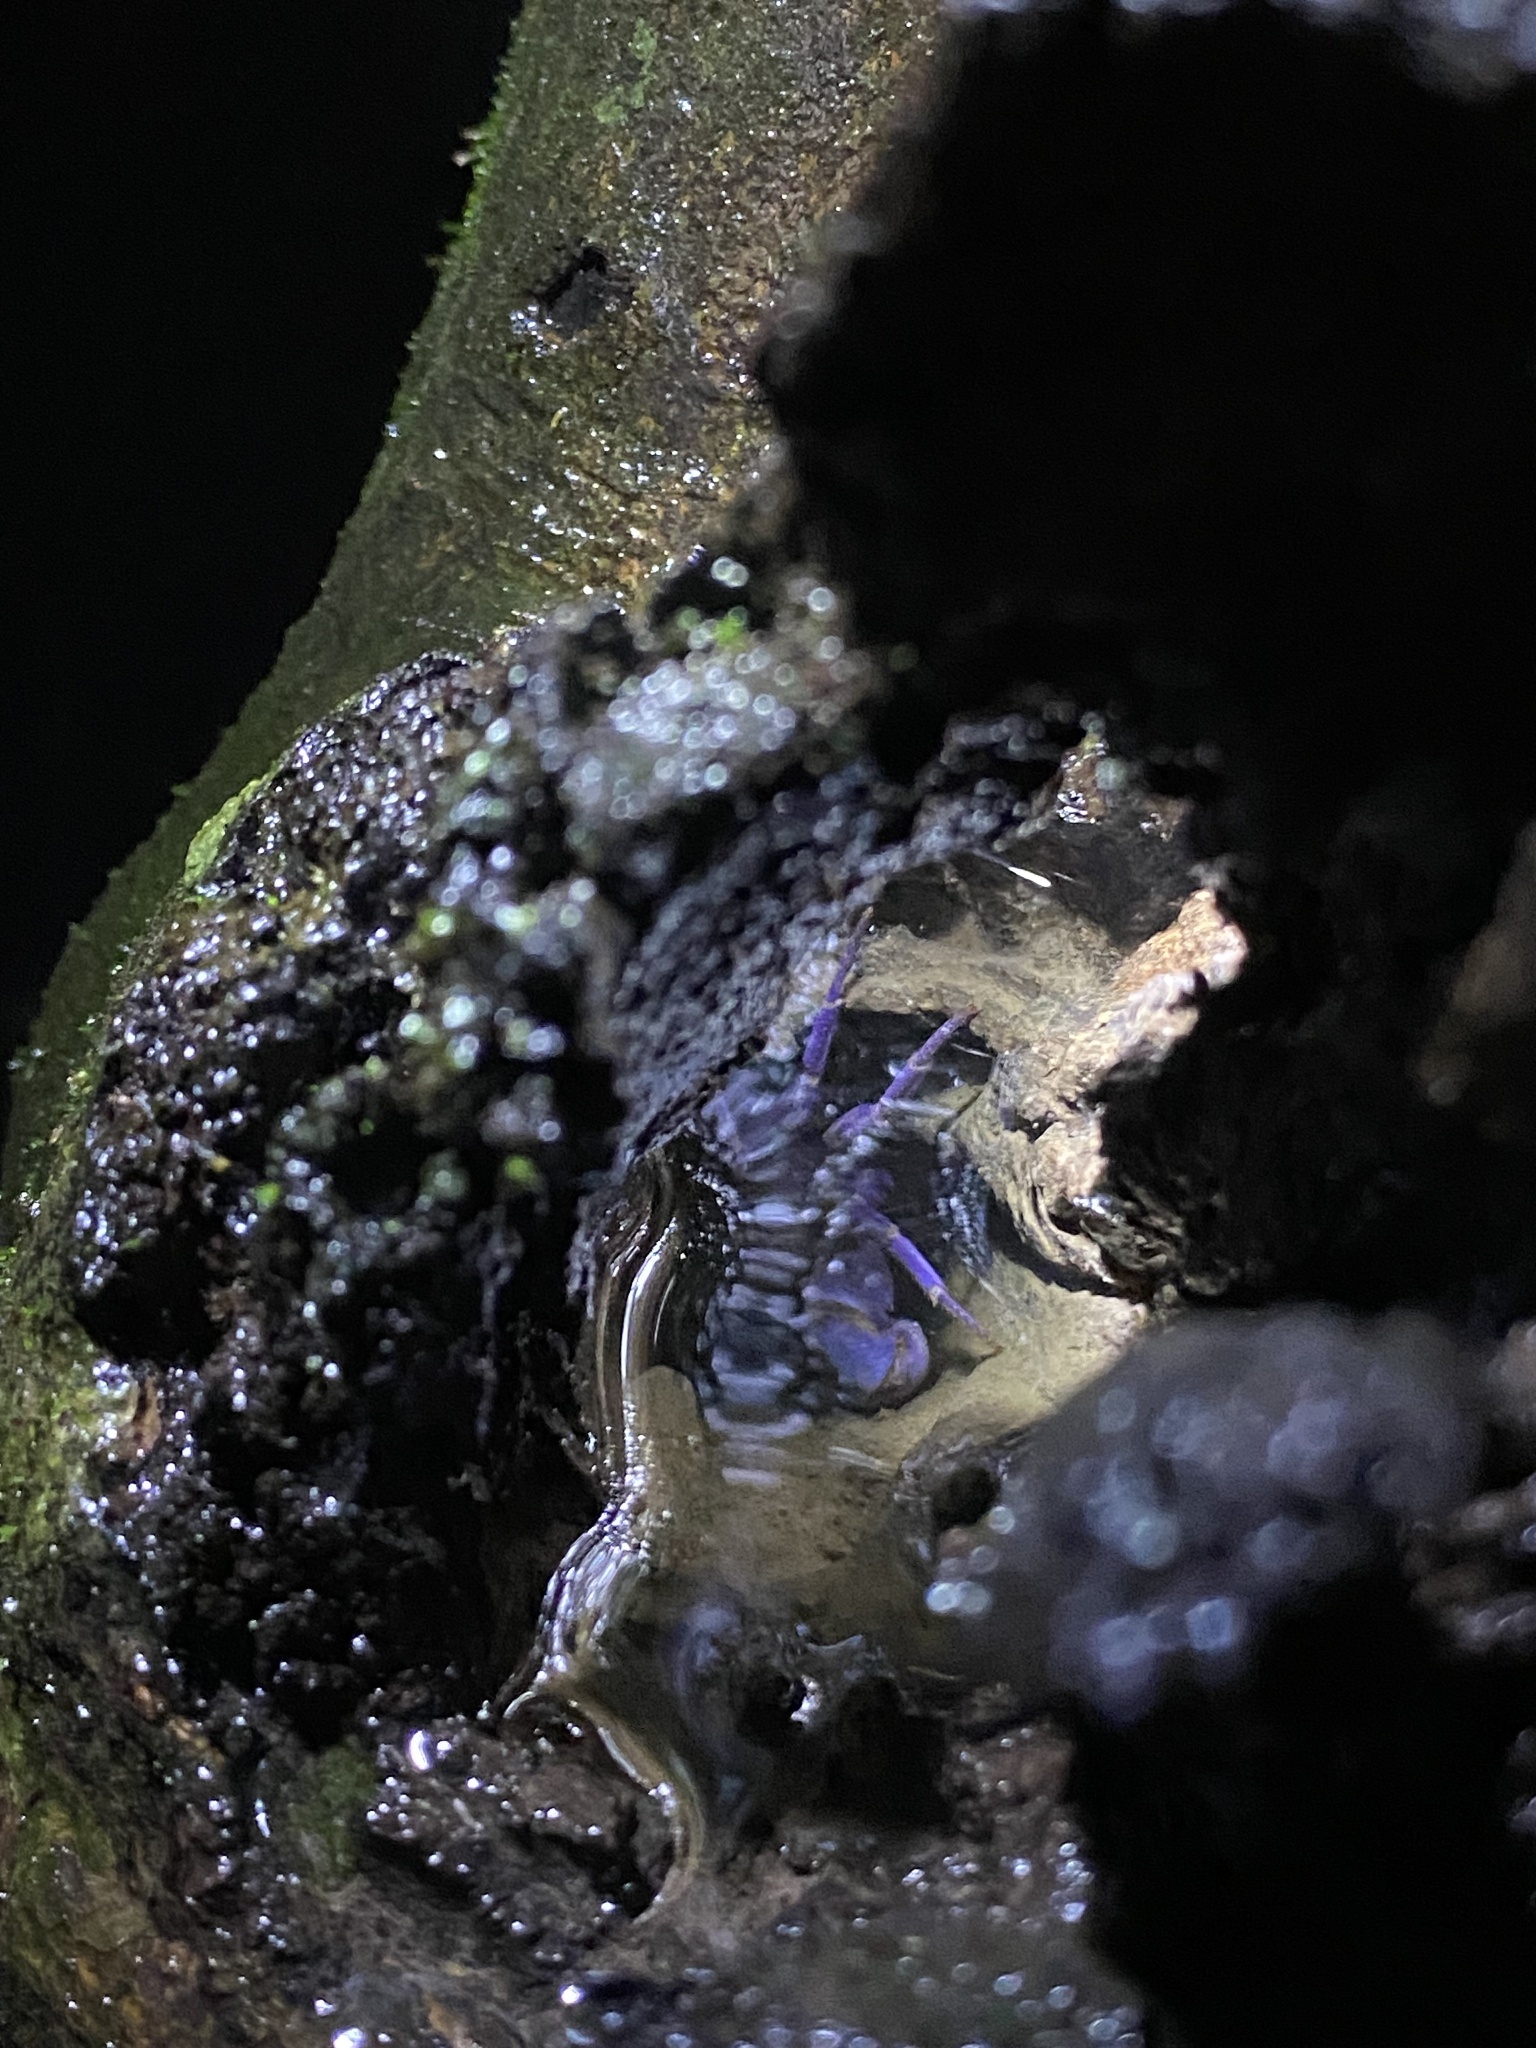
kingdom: Animalia
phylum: Arthropoda
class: Malacostraca
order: Decapoda
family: Gecarcinucidae
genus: Ghatiana
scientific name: Ghatiana atropurpurea
